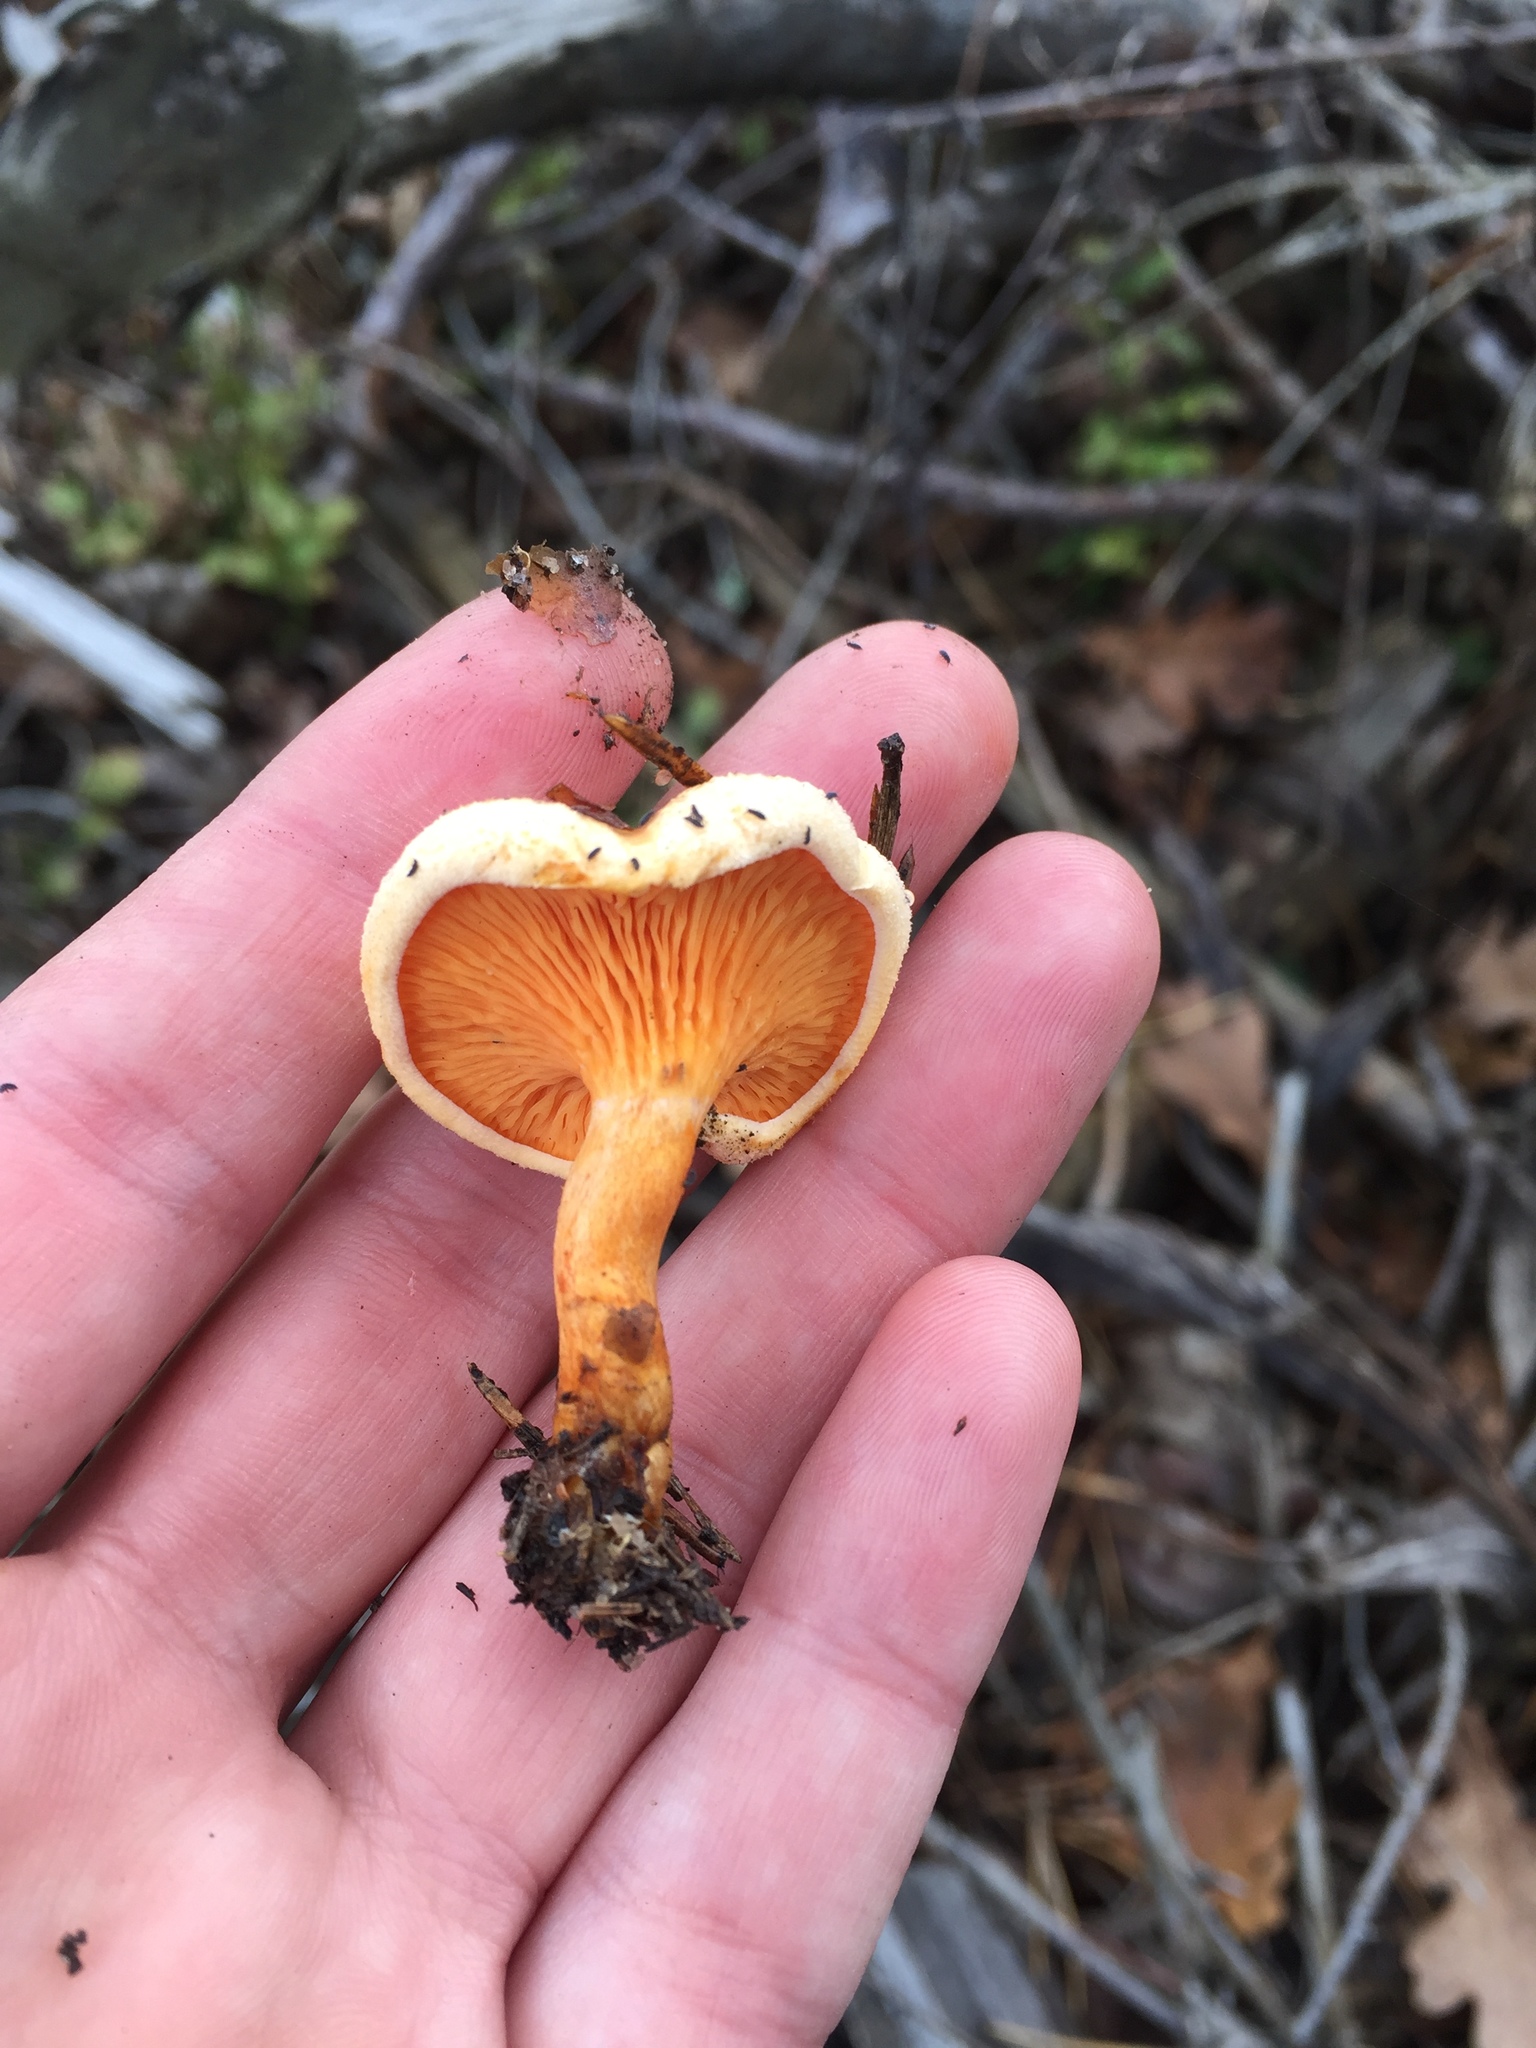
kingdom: Fungi
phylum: Basidiomycota
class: Agaricomycetes
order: Boletales
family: Hygrophoropsidaceae
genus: Hygrophoropsis
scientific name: Hygrophoropsis aurantiaca
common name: False chanterelle
